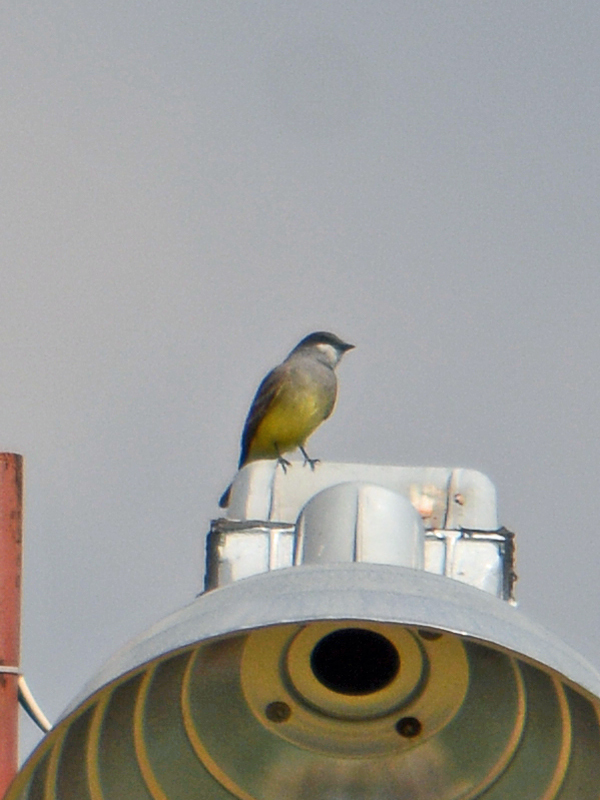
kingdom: Animalia
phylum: Chordata
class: Aves
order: Passeriformes
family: Tyrannidae
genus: Tyrannus
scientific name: Tyrannus vociferans
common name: Cassin's kingbird
